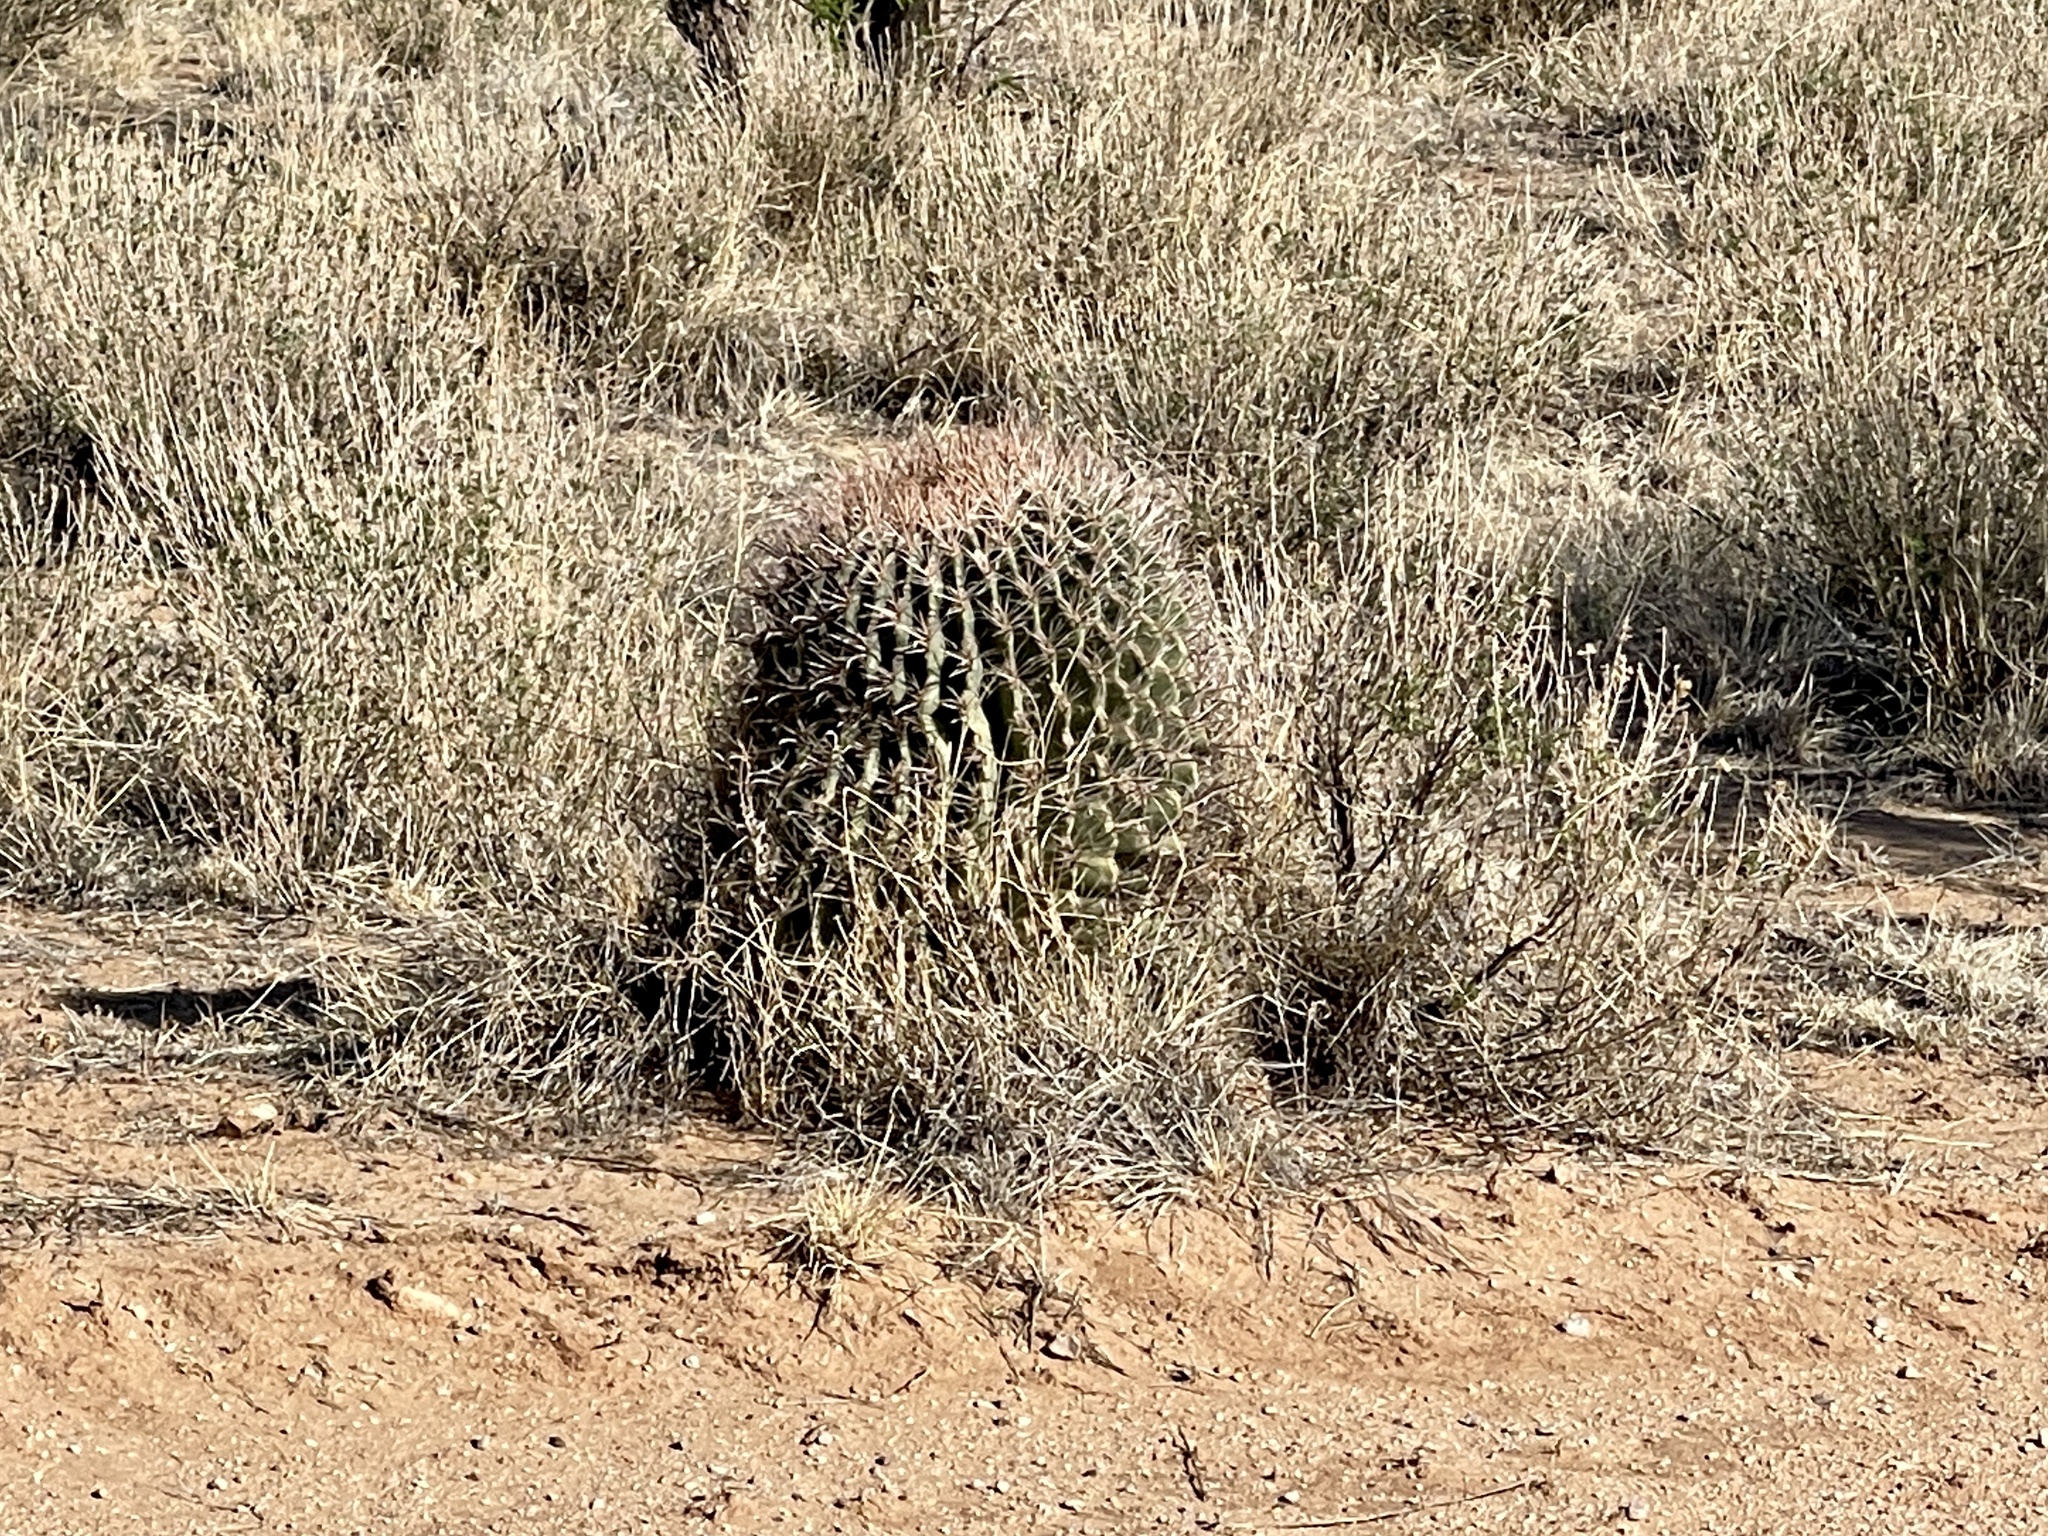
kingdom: Plantae
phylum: Tracheophyta
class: Magnoliopsida
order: Caryophyllales
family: Cactaceae
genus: Ferocactus
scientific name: Ferocactus wislizeni
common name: Candy barrel cactus
